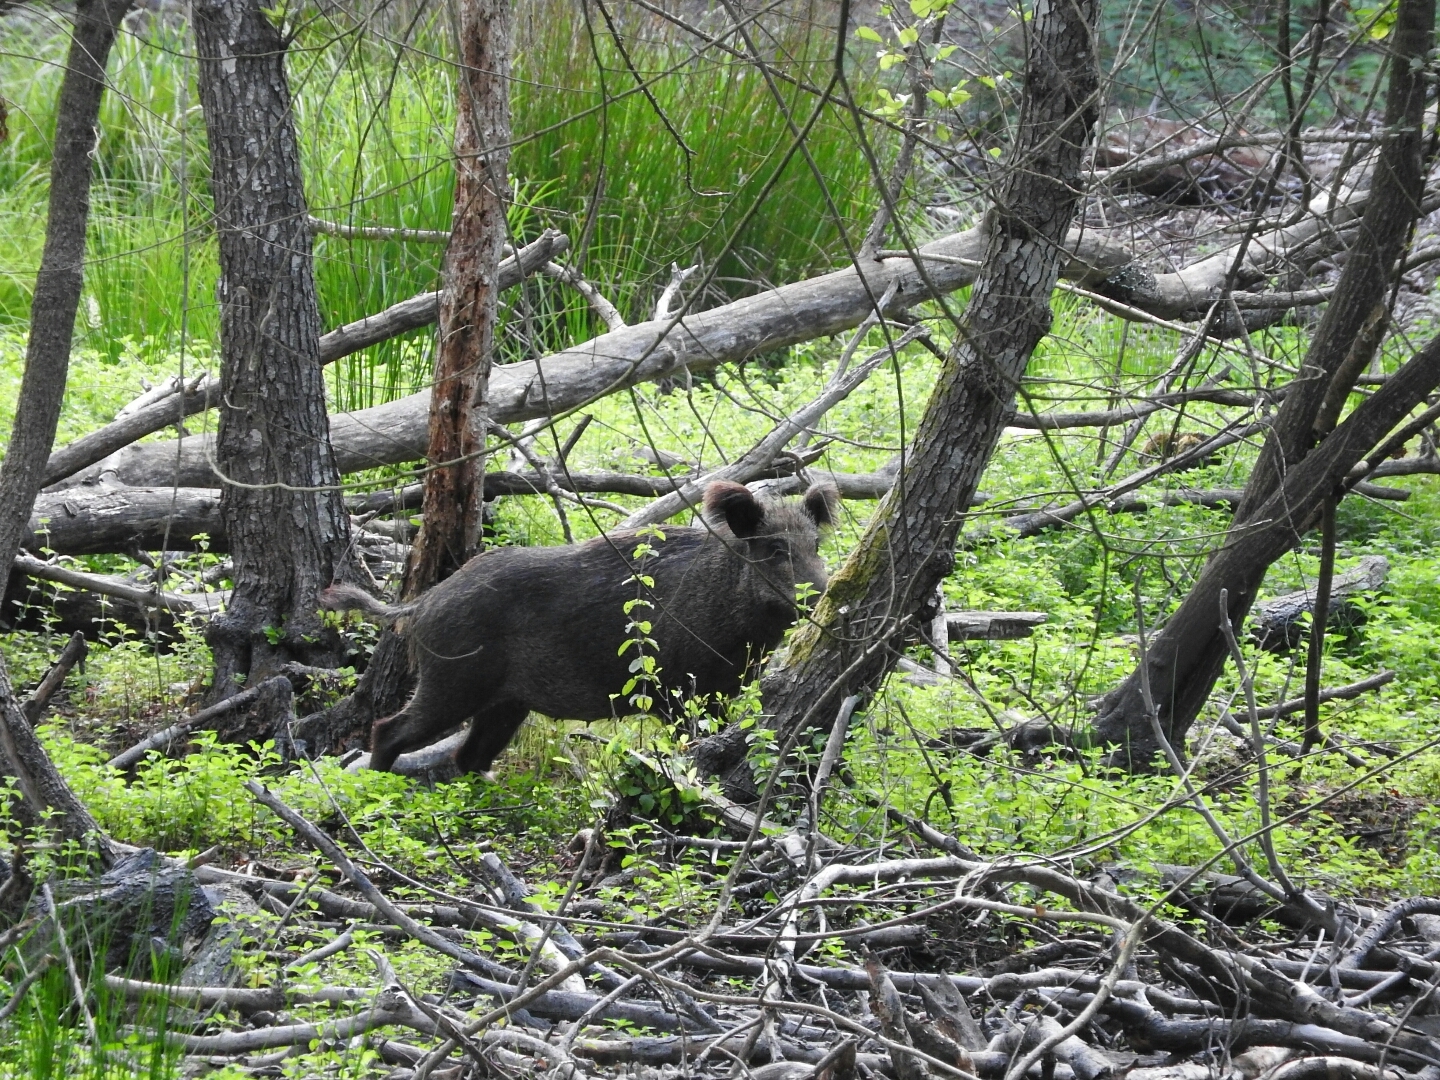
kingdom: Animalia
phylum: Chordata
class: Mammalia
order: Artiodactyla
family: Suidae
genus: Sus
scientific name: Sus scrofa
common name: Wild boar
